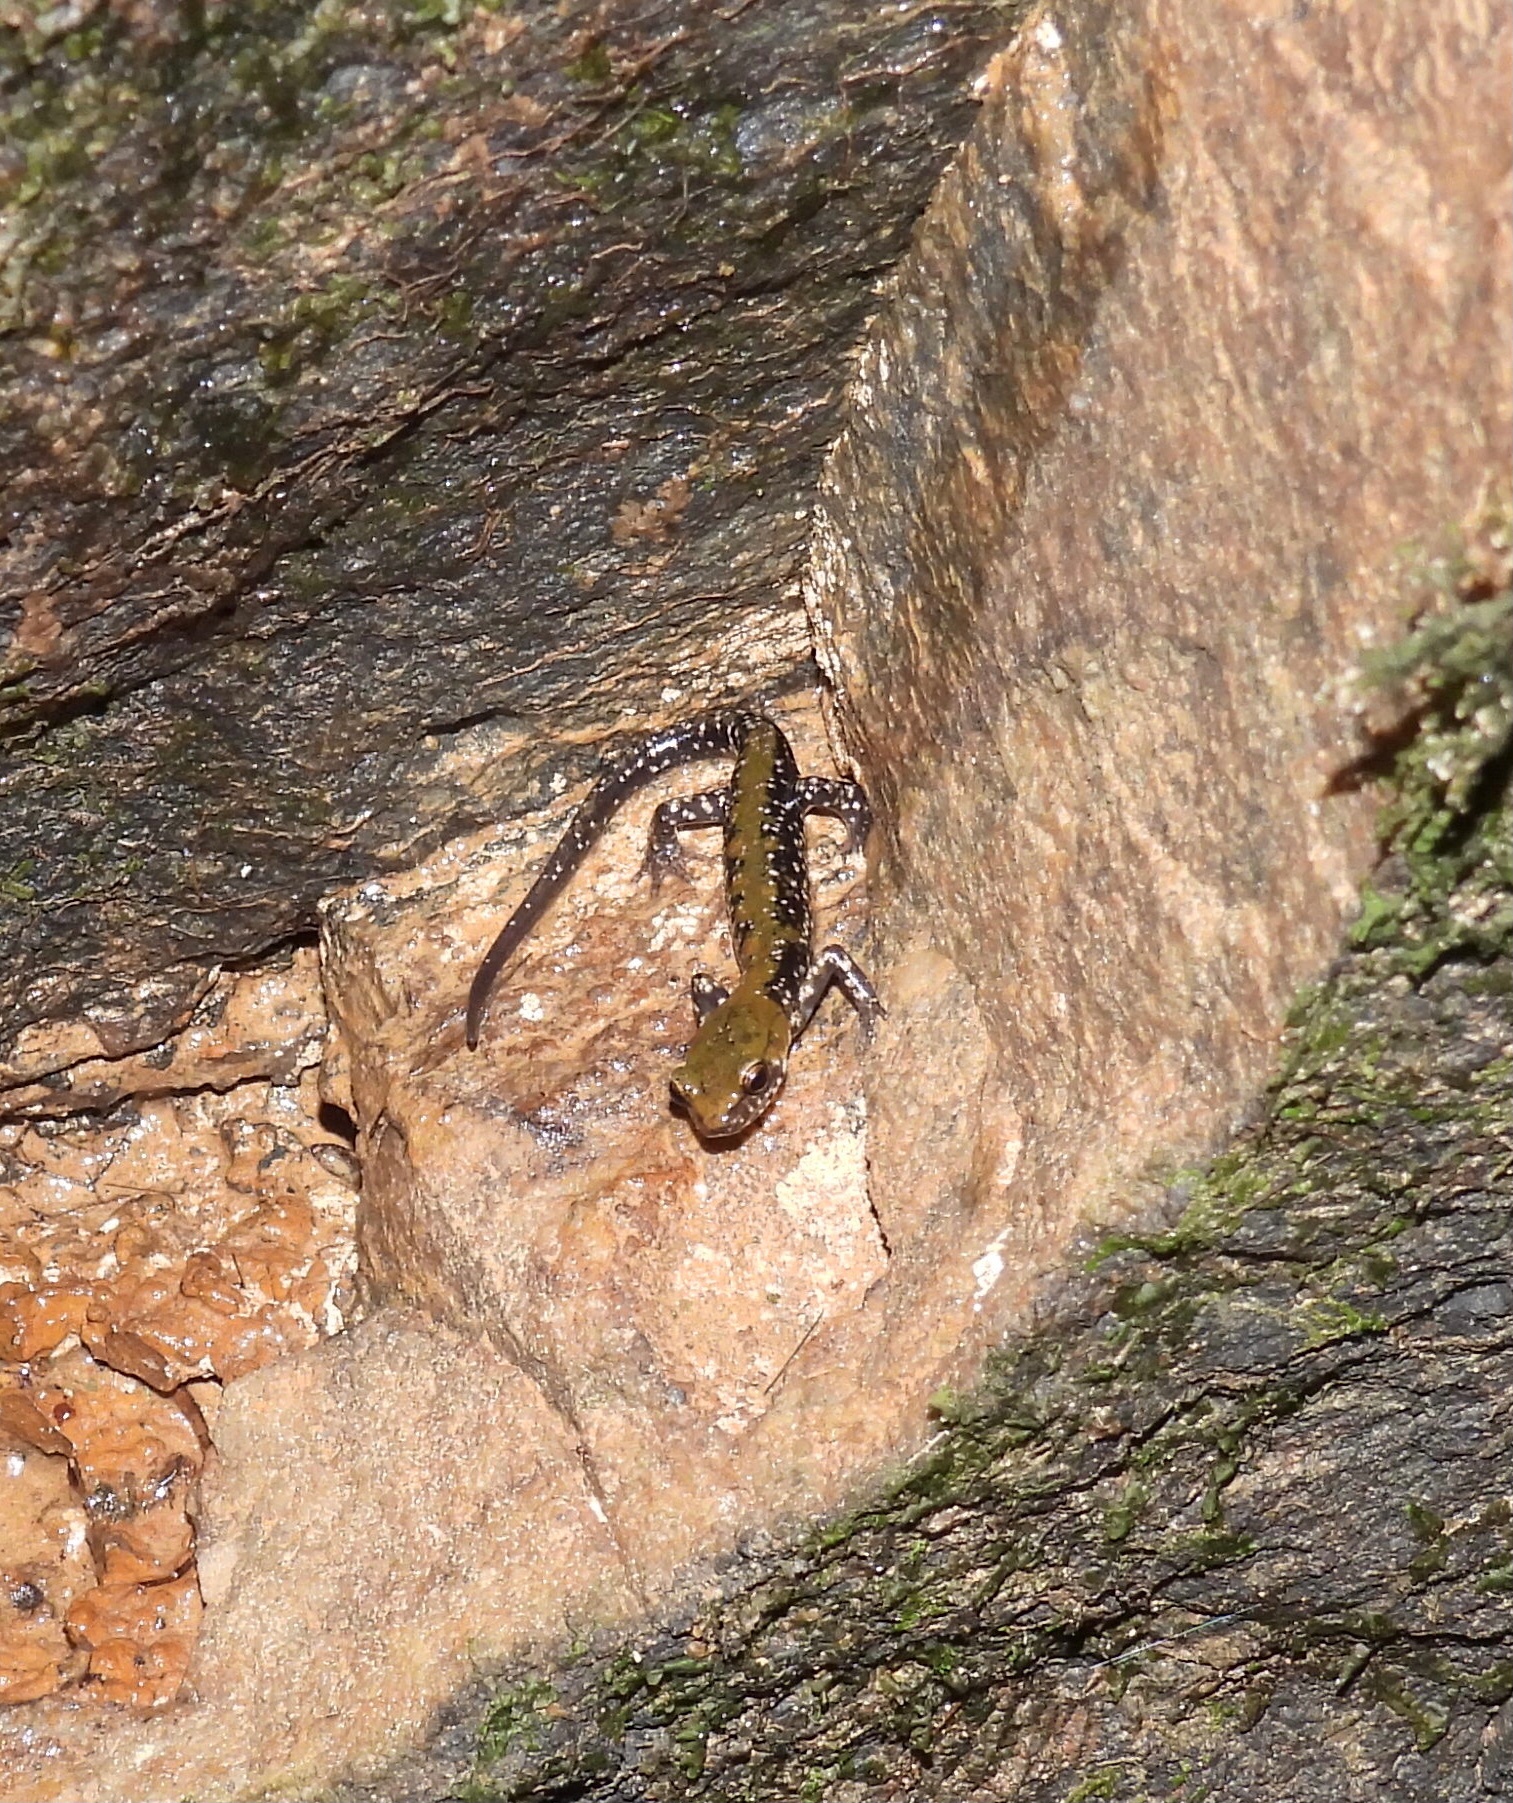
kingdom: Animalia
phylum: Chordata
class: Amphibia
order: Caudata
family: Plethodontidae
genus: Plethodon
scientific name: Plethodon petraeus
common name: Pigeon mountain salamander
